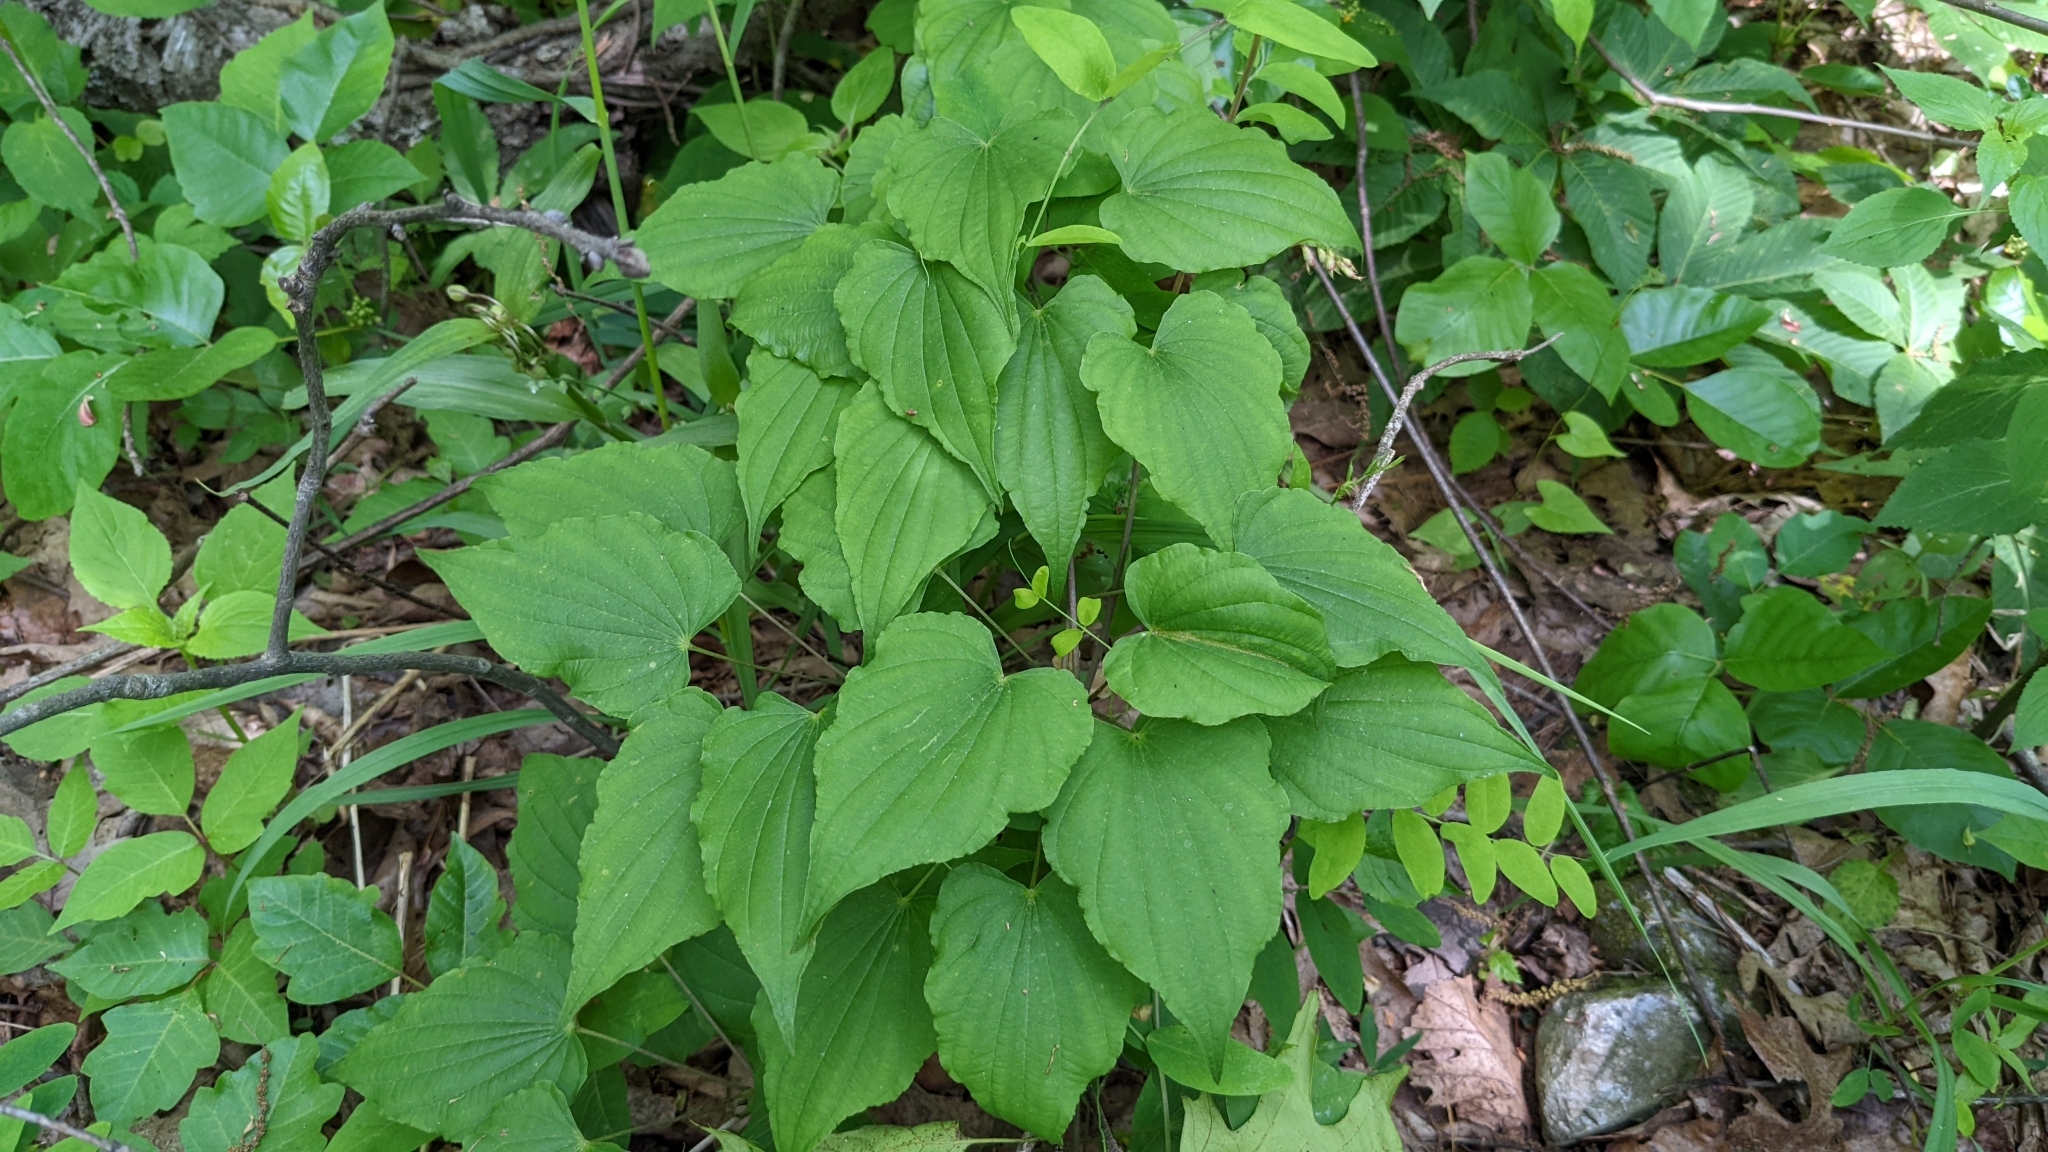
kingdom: Plantae
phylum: Tracheophyta
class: Liliopsida
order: Dioscoreales
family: Dioscoreaceae
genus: Dioscorea
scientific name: Dioscorea villosa
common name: Wild yam
